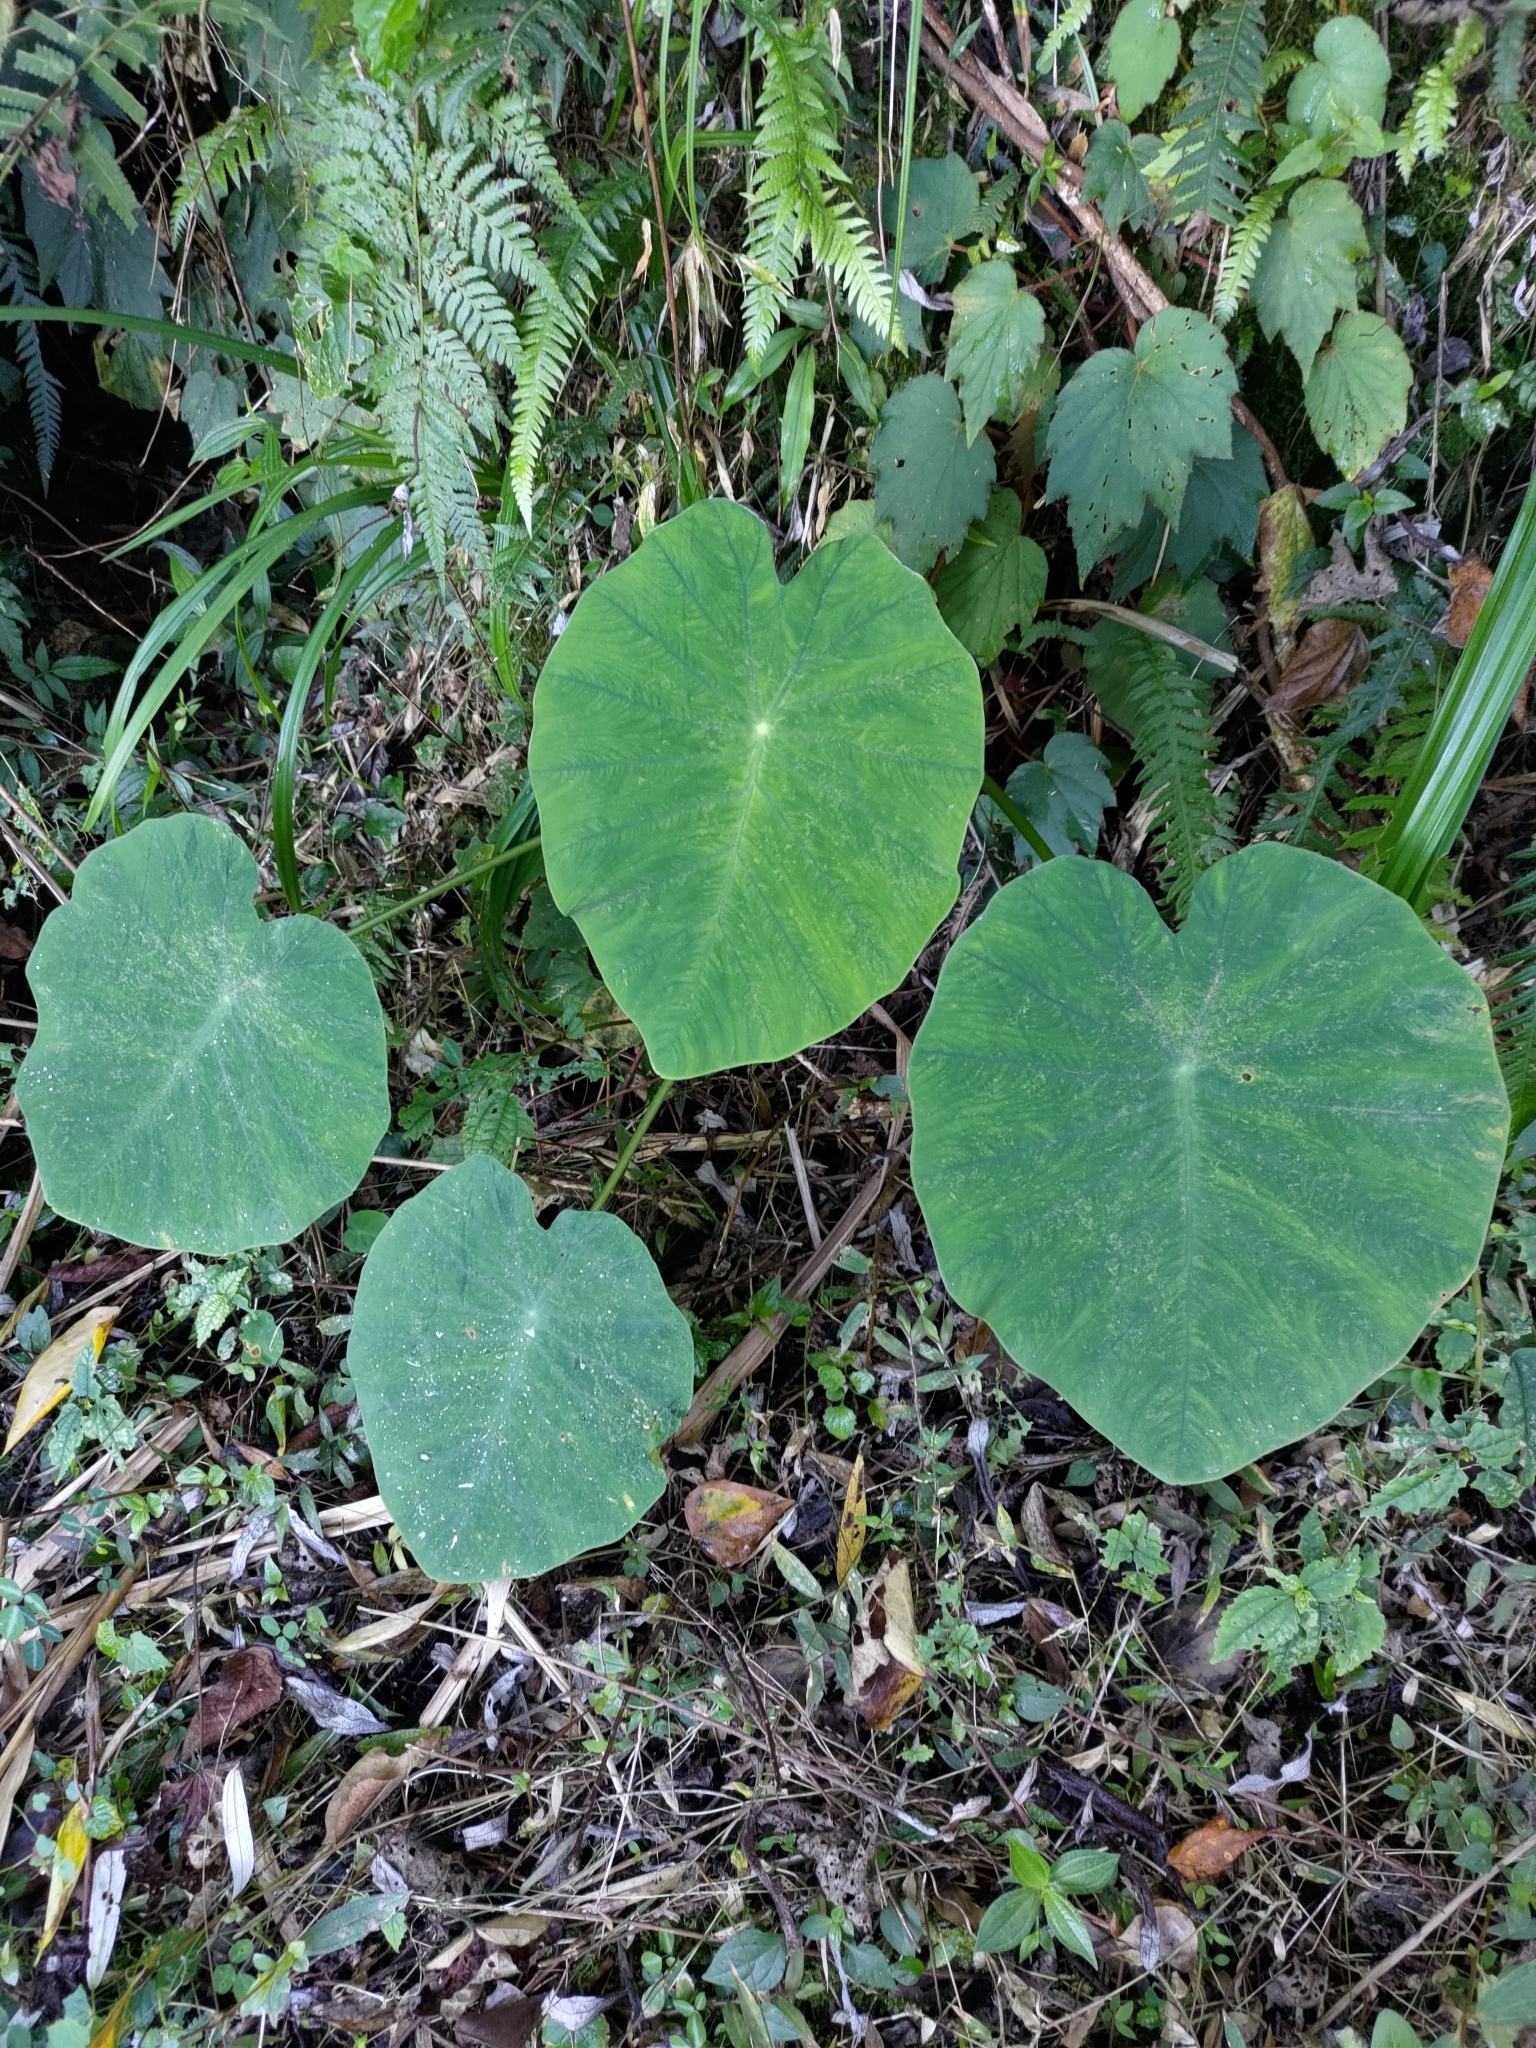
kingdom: Plantae
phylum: Tracheophyta
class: Liliopsida
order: Alismatales
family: Araceae
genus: Colocasia
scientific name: Colocasia esculenta
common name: Taro
